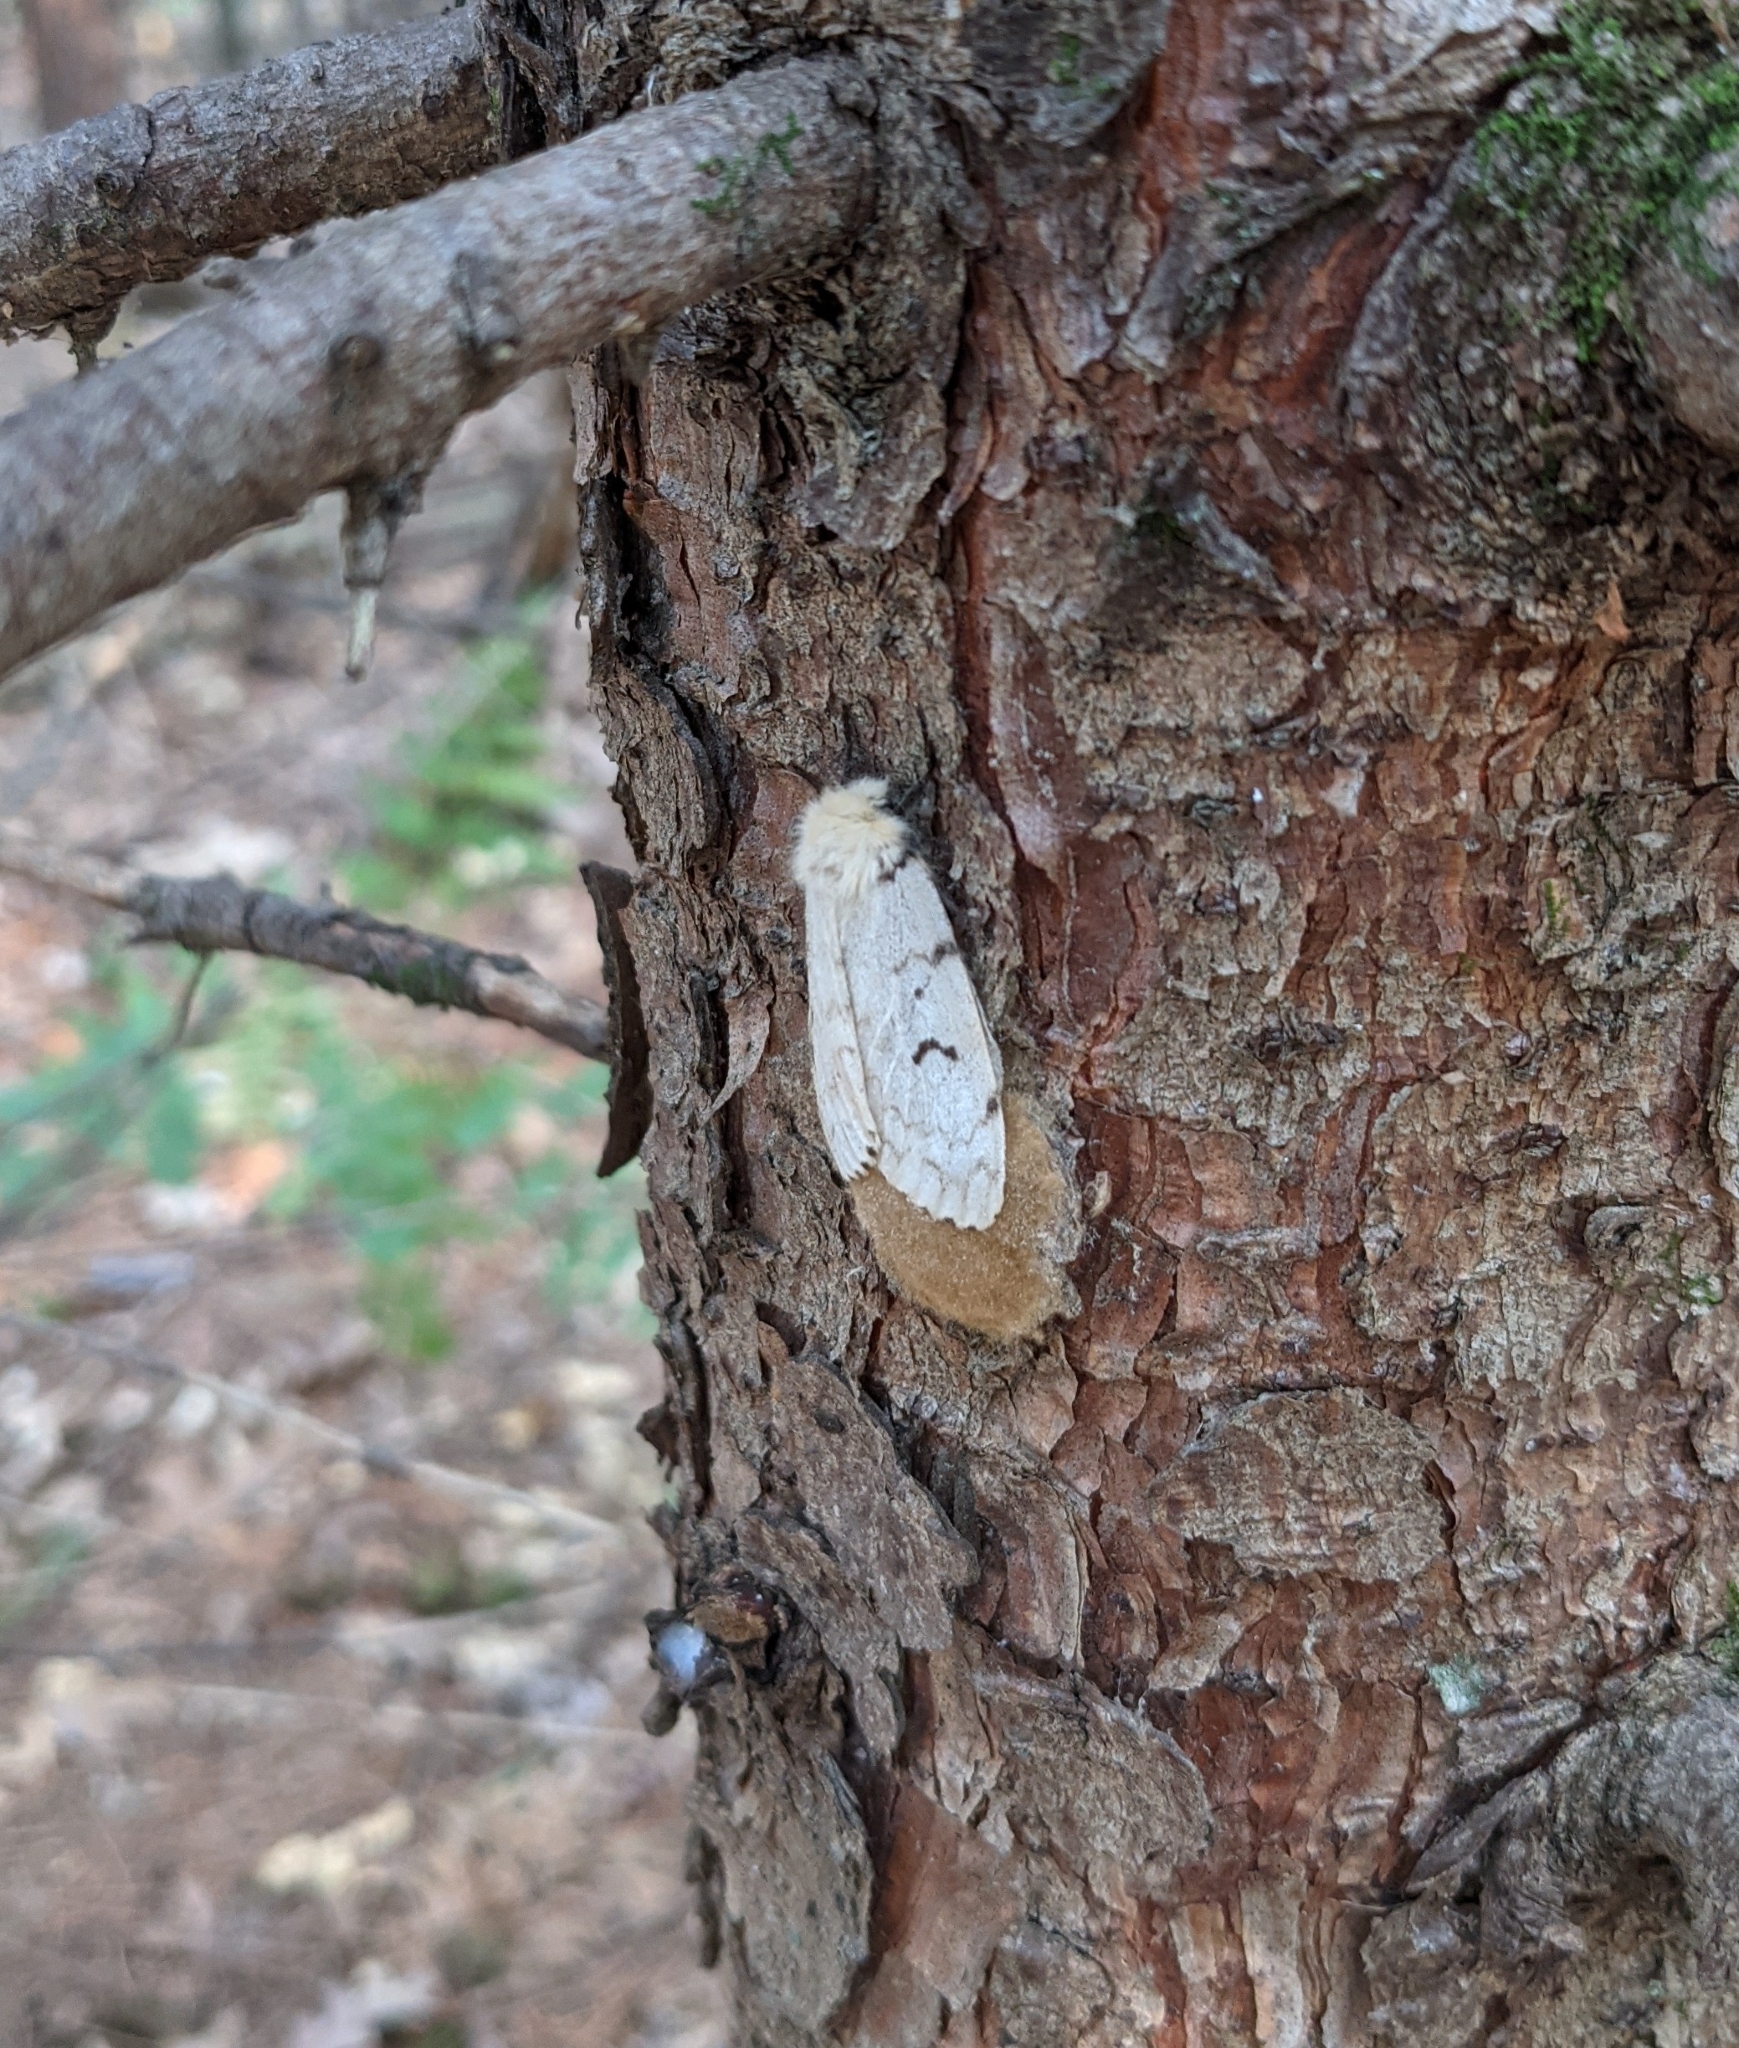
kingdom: Animalia
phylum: Arthropoda
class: Insecta
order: Lepidoptera
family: Erebidae
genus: Lymantria
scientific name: Lymantria dispar
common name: Gypsy moth
